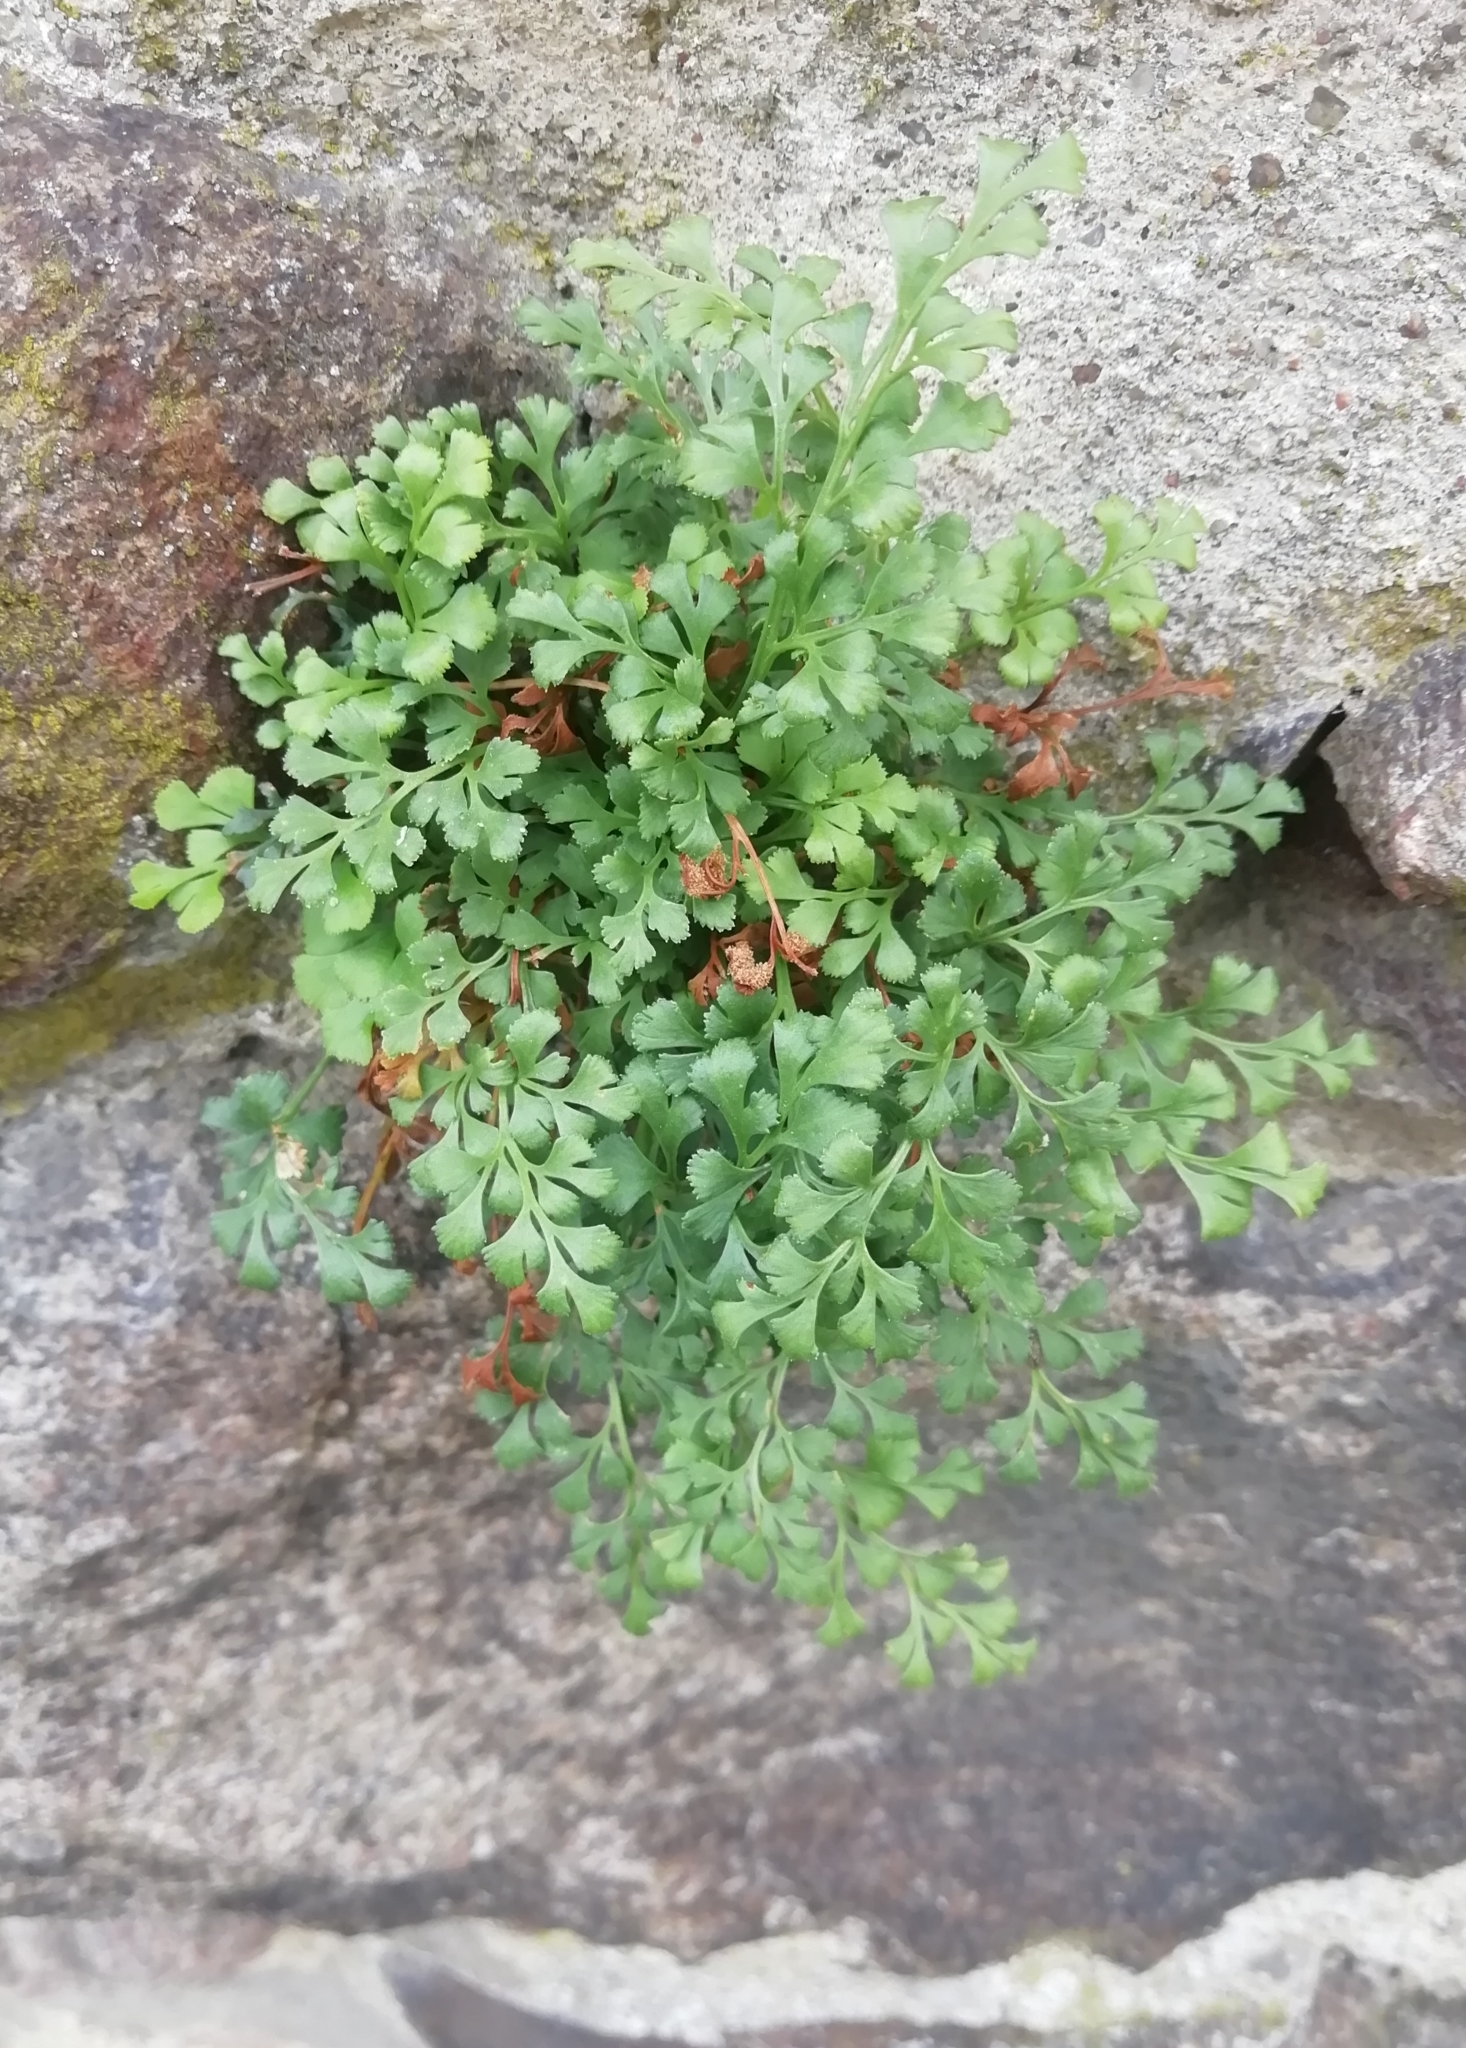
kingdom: Plantae
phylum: Tracheophyta
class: Polypodiopsida
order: Polypodiales
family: Aspleniaceae
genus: Asplenium
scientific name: Asplenium ruta-muraria
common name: Wall-rue
